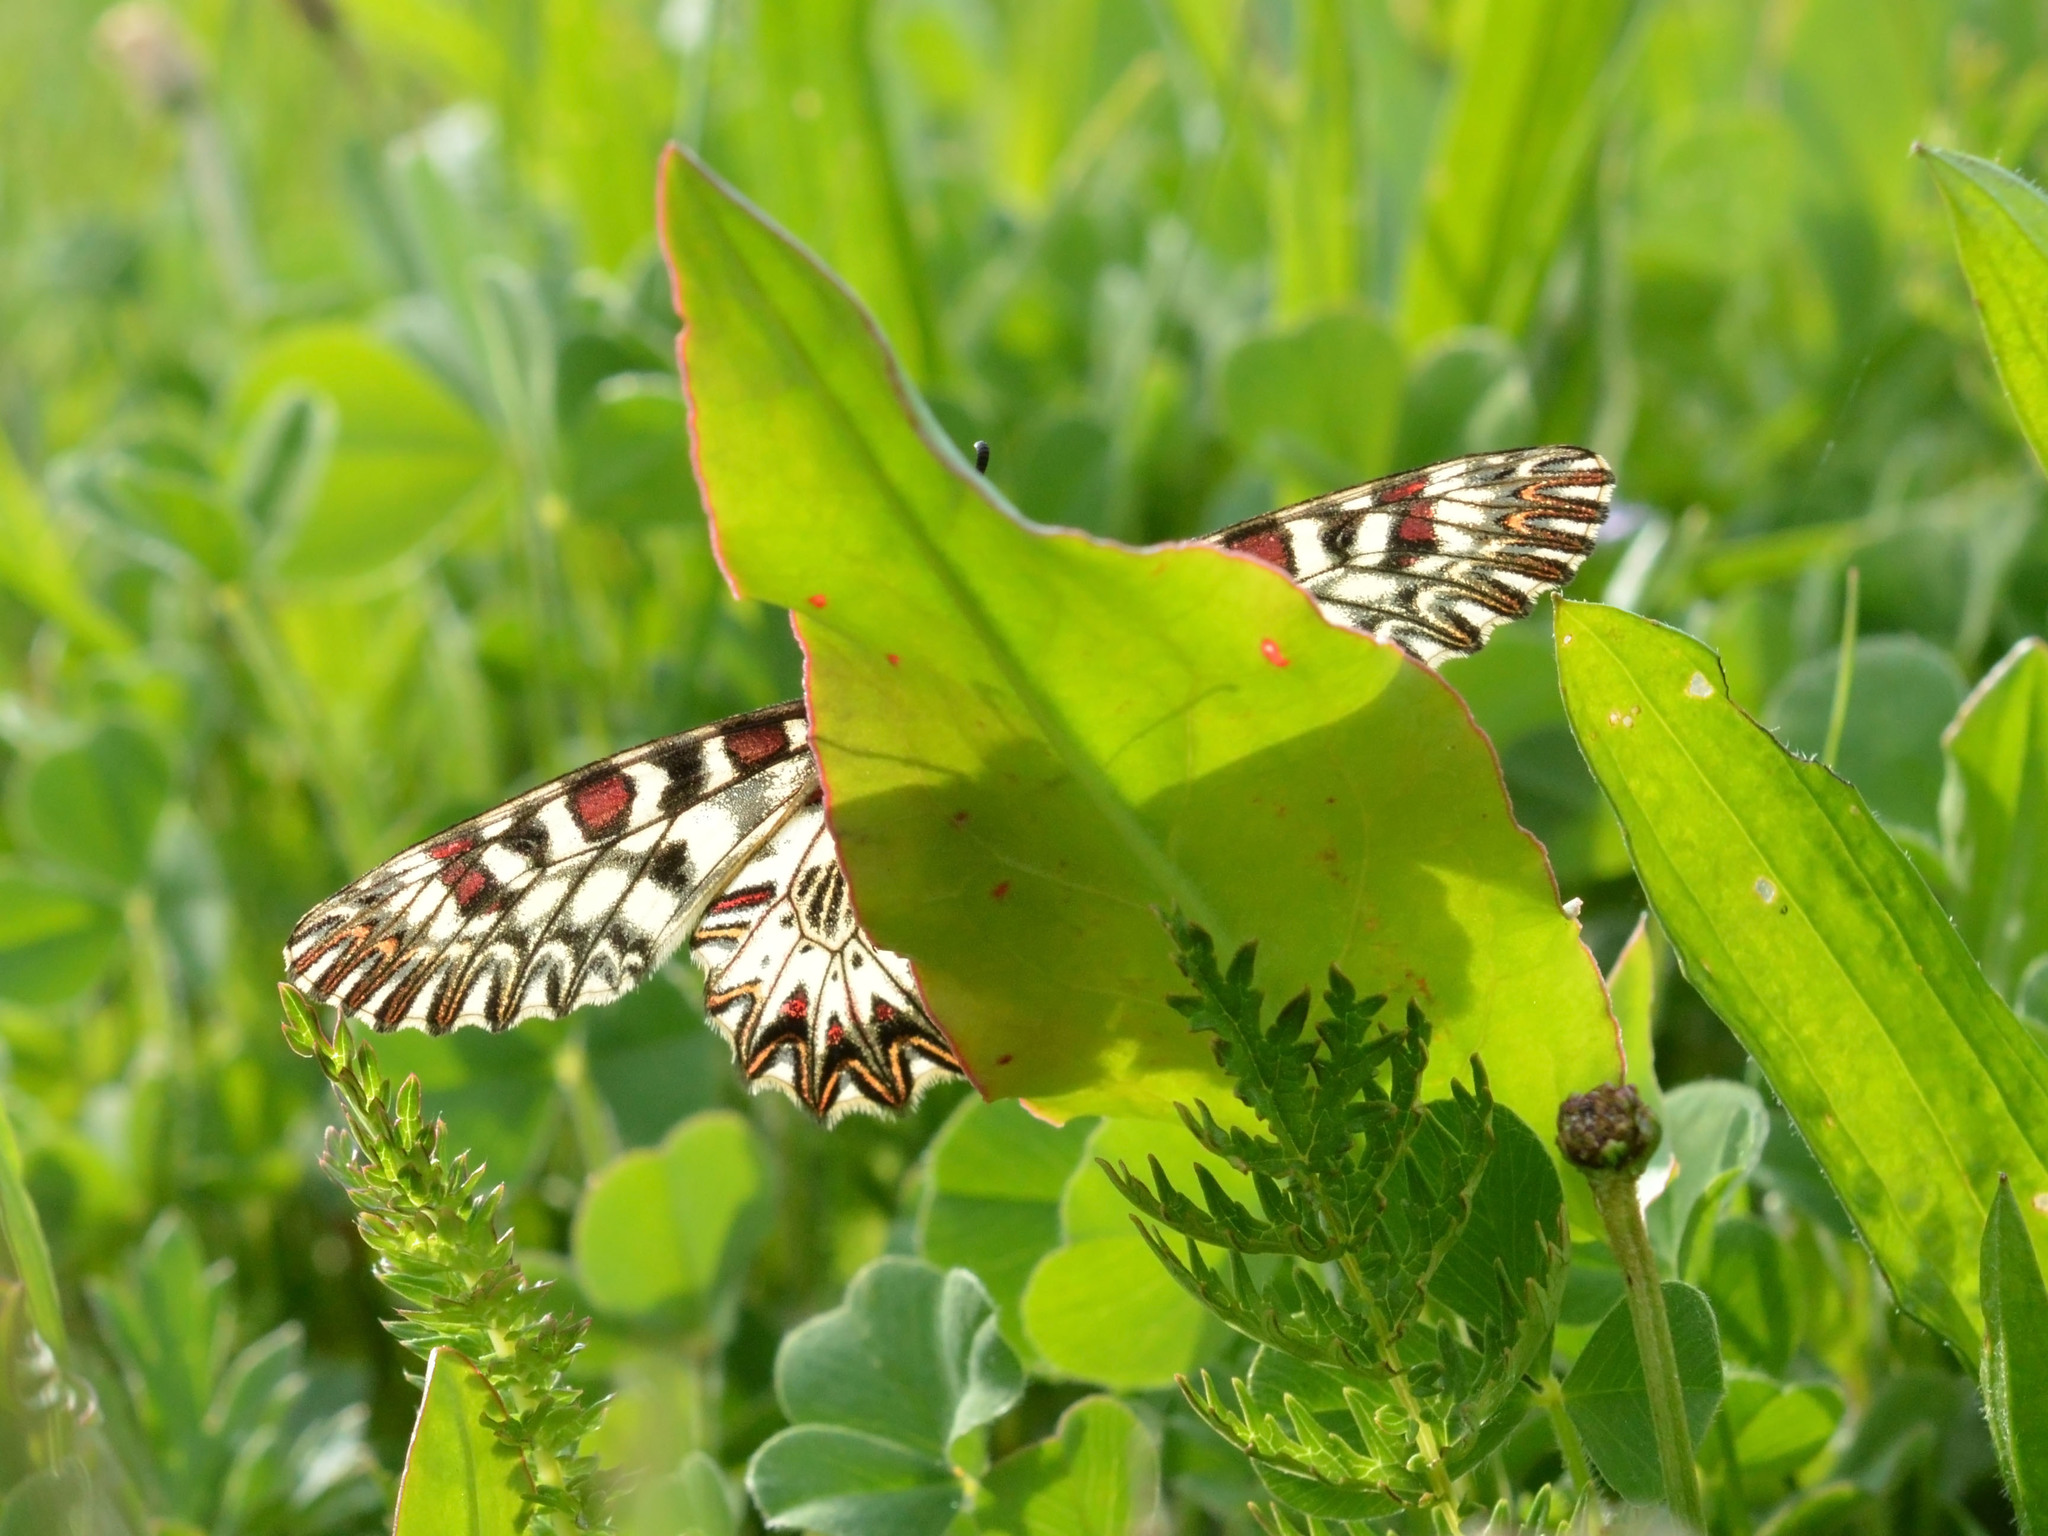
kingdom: Animalia
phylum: Arthropoda
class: Insecta
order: Lepidoptera
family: Papilionidae
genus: Zerynthia
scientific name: Zerynthia polyxena
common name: Southern festoon
